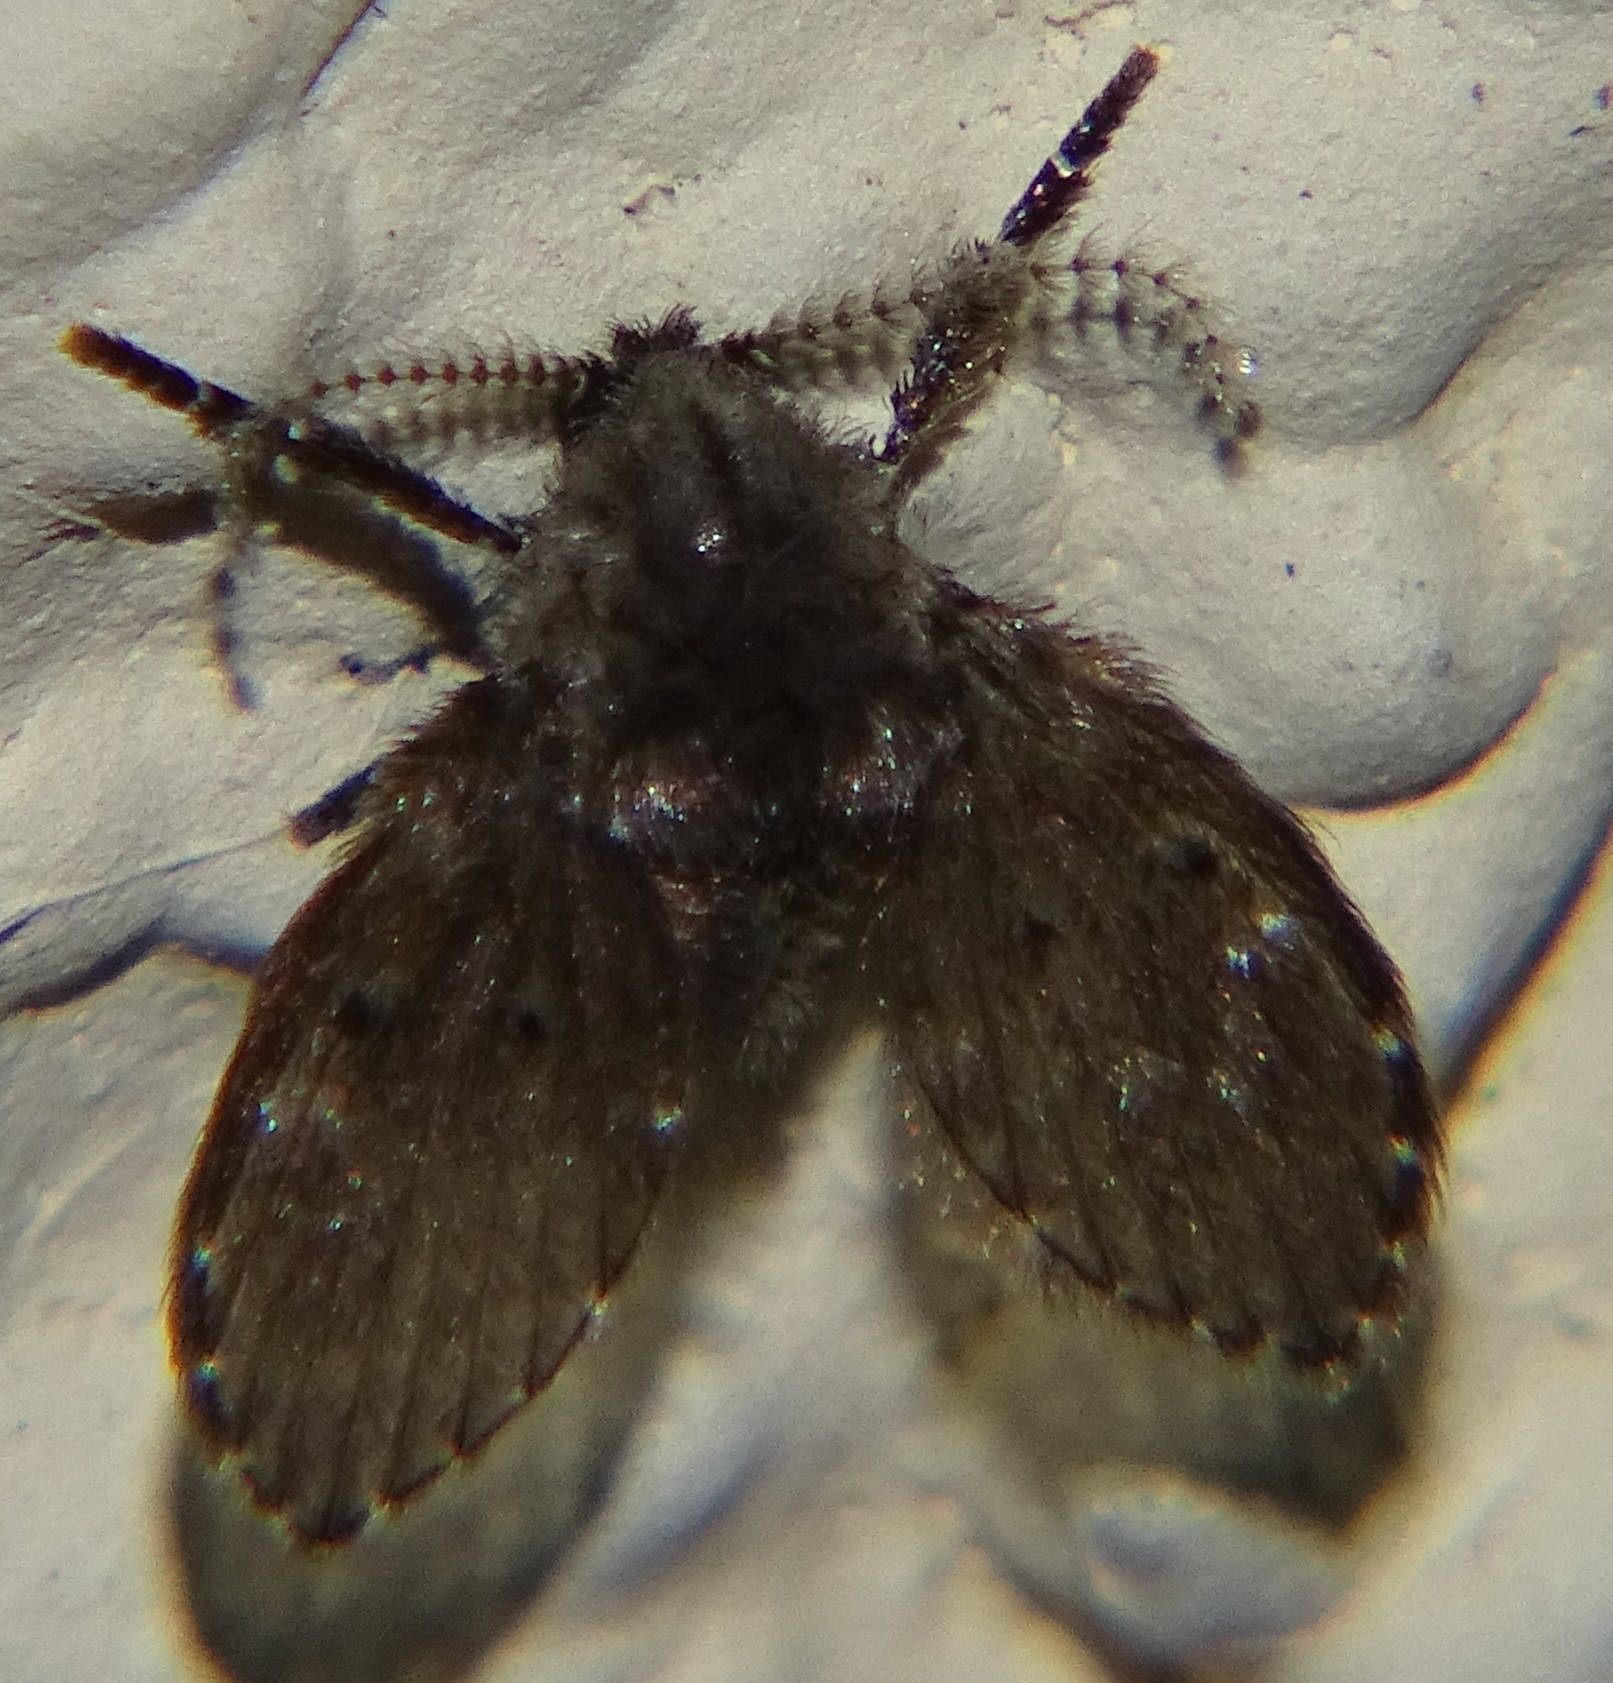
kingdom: Animalia
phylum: Arthropoda
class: Insecta
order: Diptera
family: Psychodidae
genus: Clogmia
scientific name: Clogmia albipunctatus
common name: White-spotted moth fly
